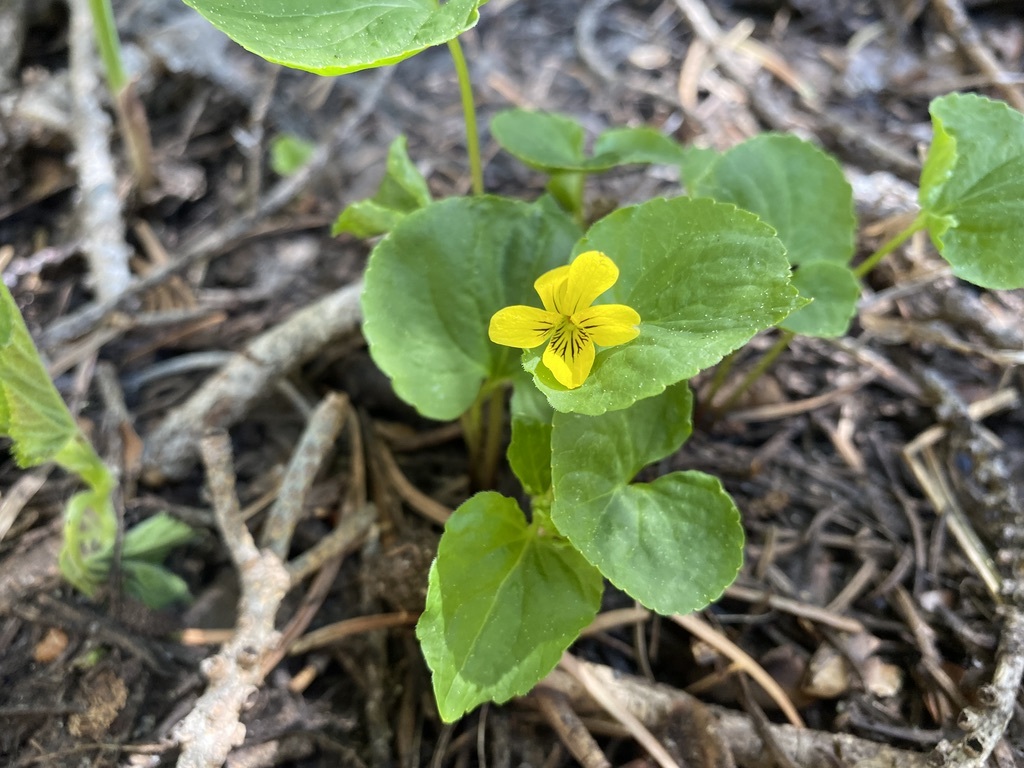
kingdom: Plantae
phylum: Tracheophyta
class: Magnoliopsida
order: Malpighiales
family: Violaceae
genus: Viola
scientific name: Viola glabella
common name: Stream violet
